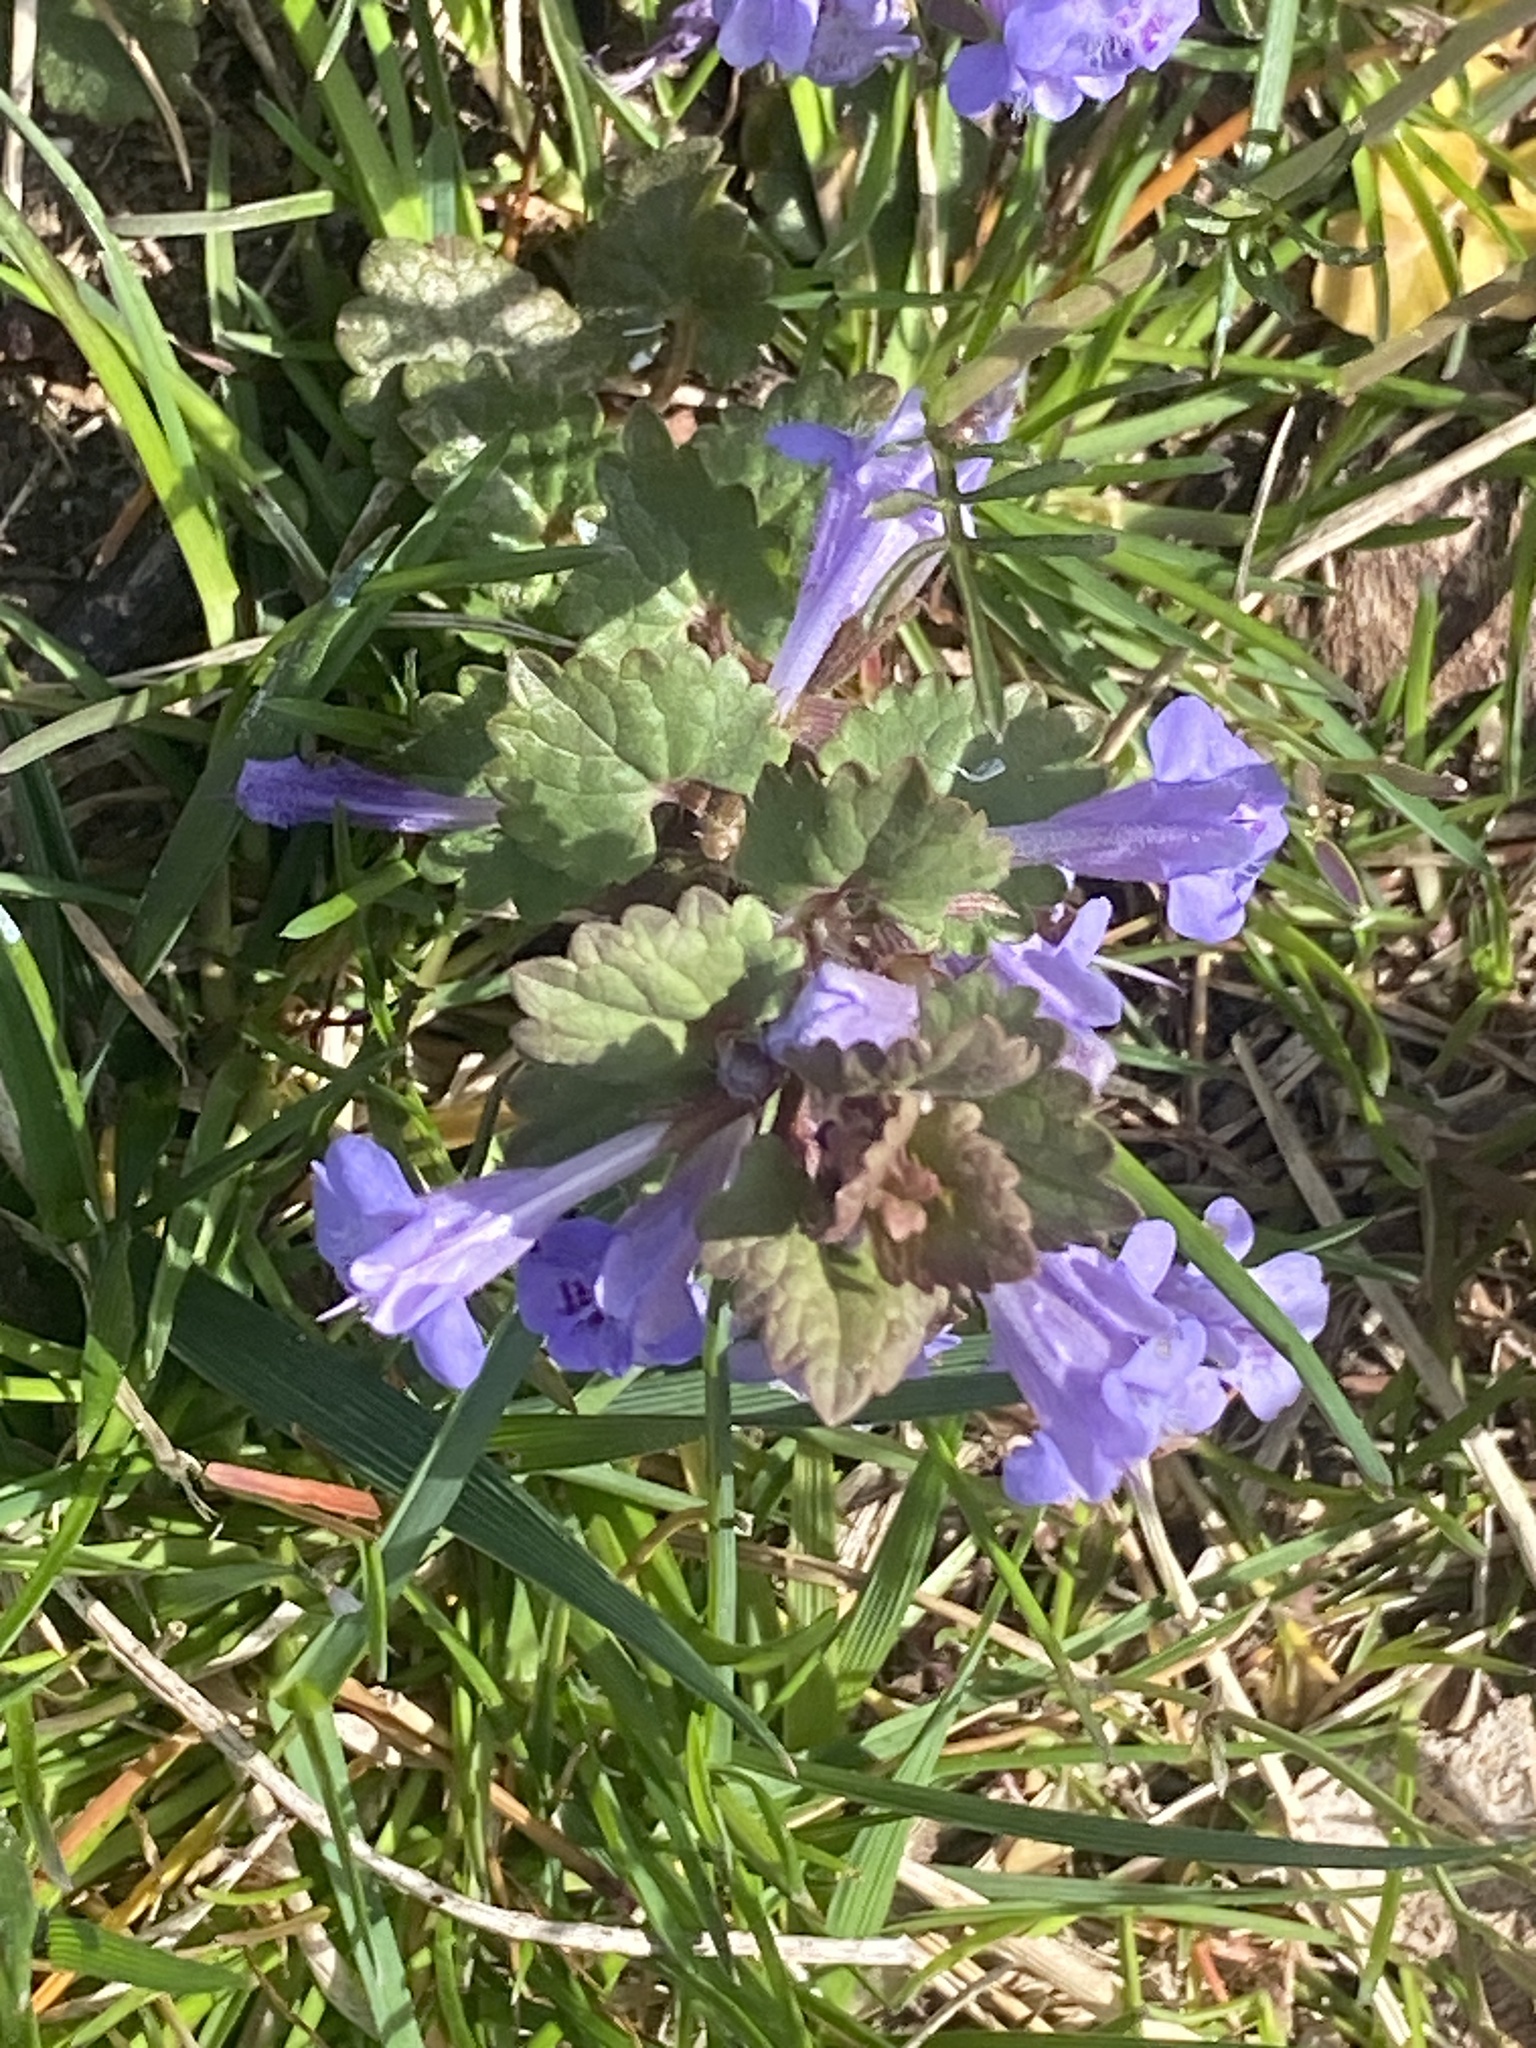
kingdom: Plantae
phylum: Tracheophyta
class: Magnoliopsida
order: Lamiales
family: Lamiaceae
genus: Glechoma
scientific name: Glechoma hederacea
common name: Ground ivy
